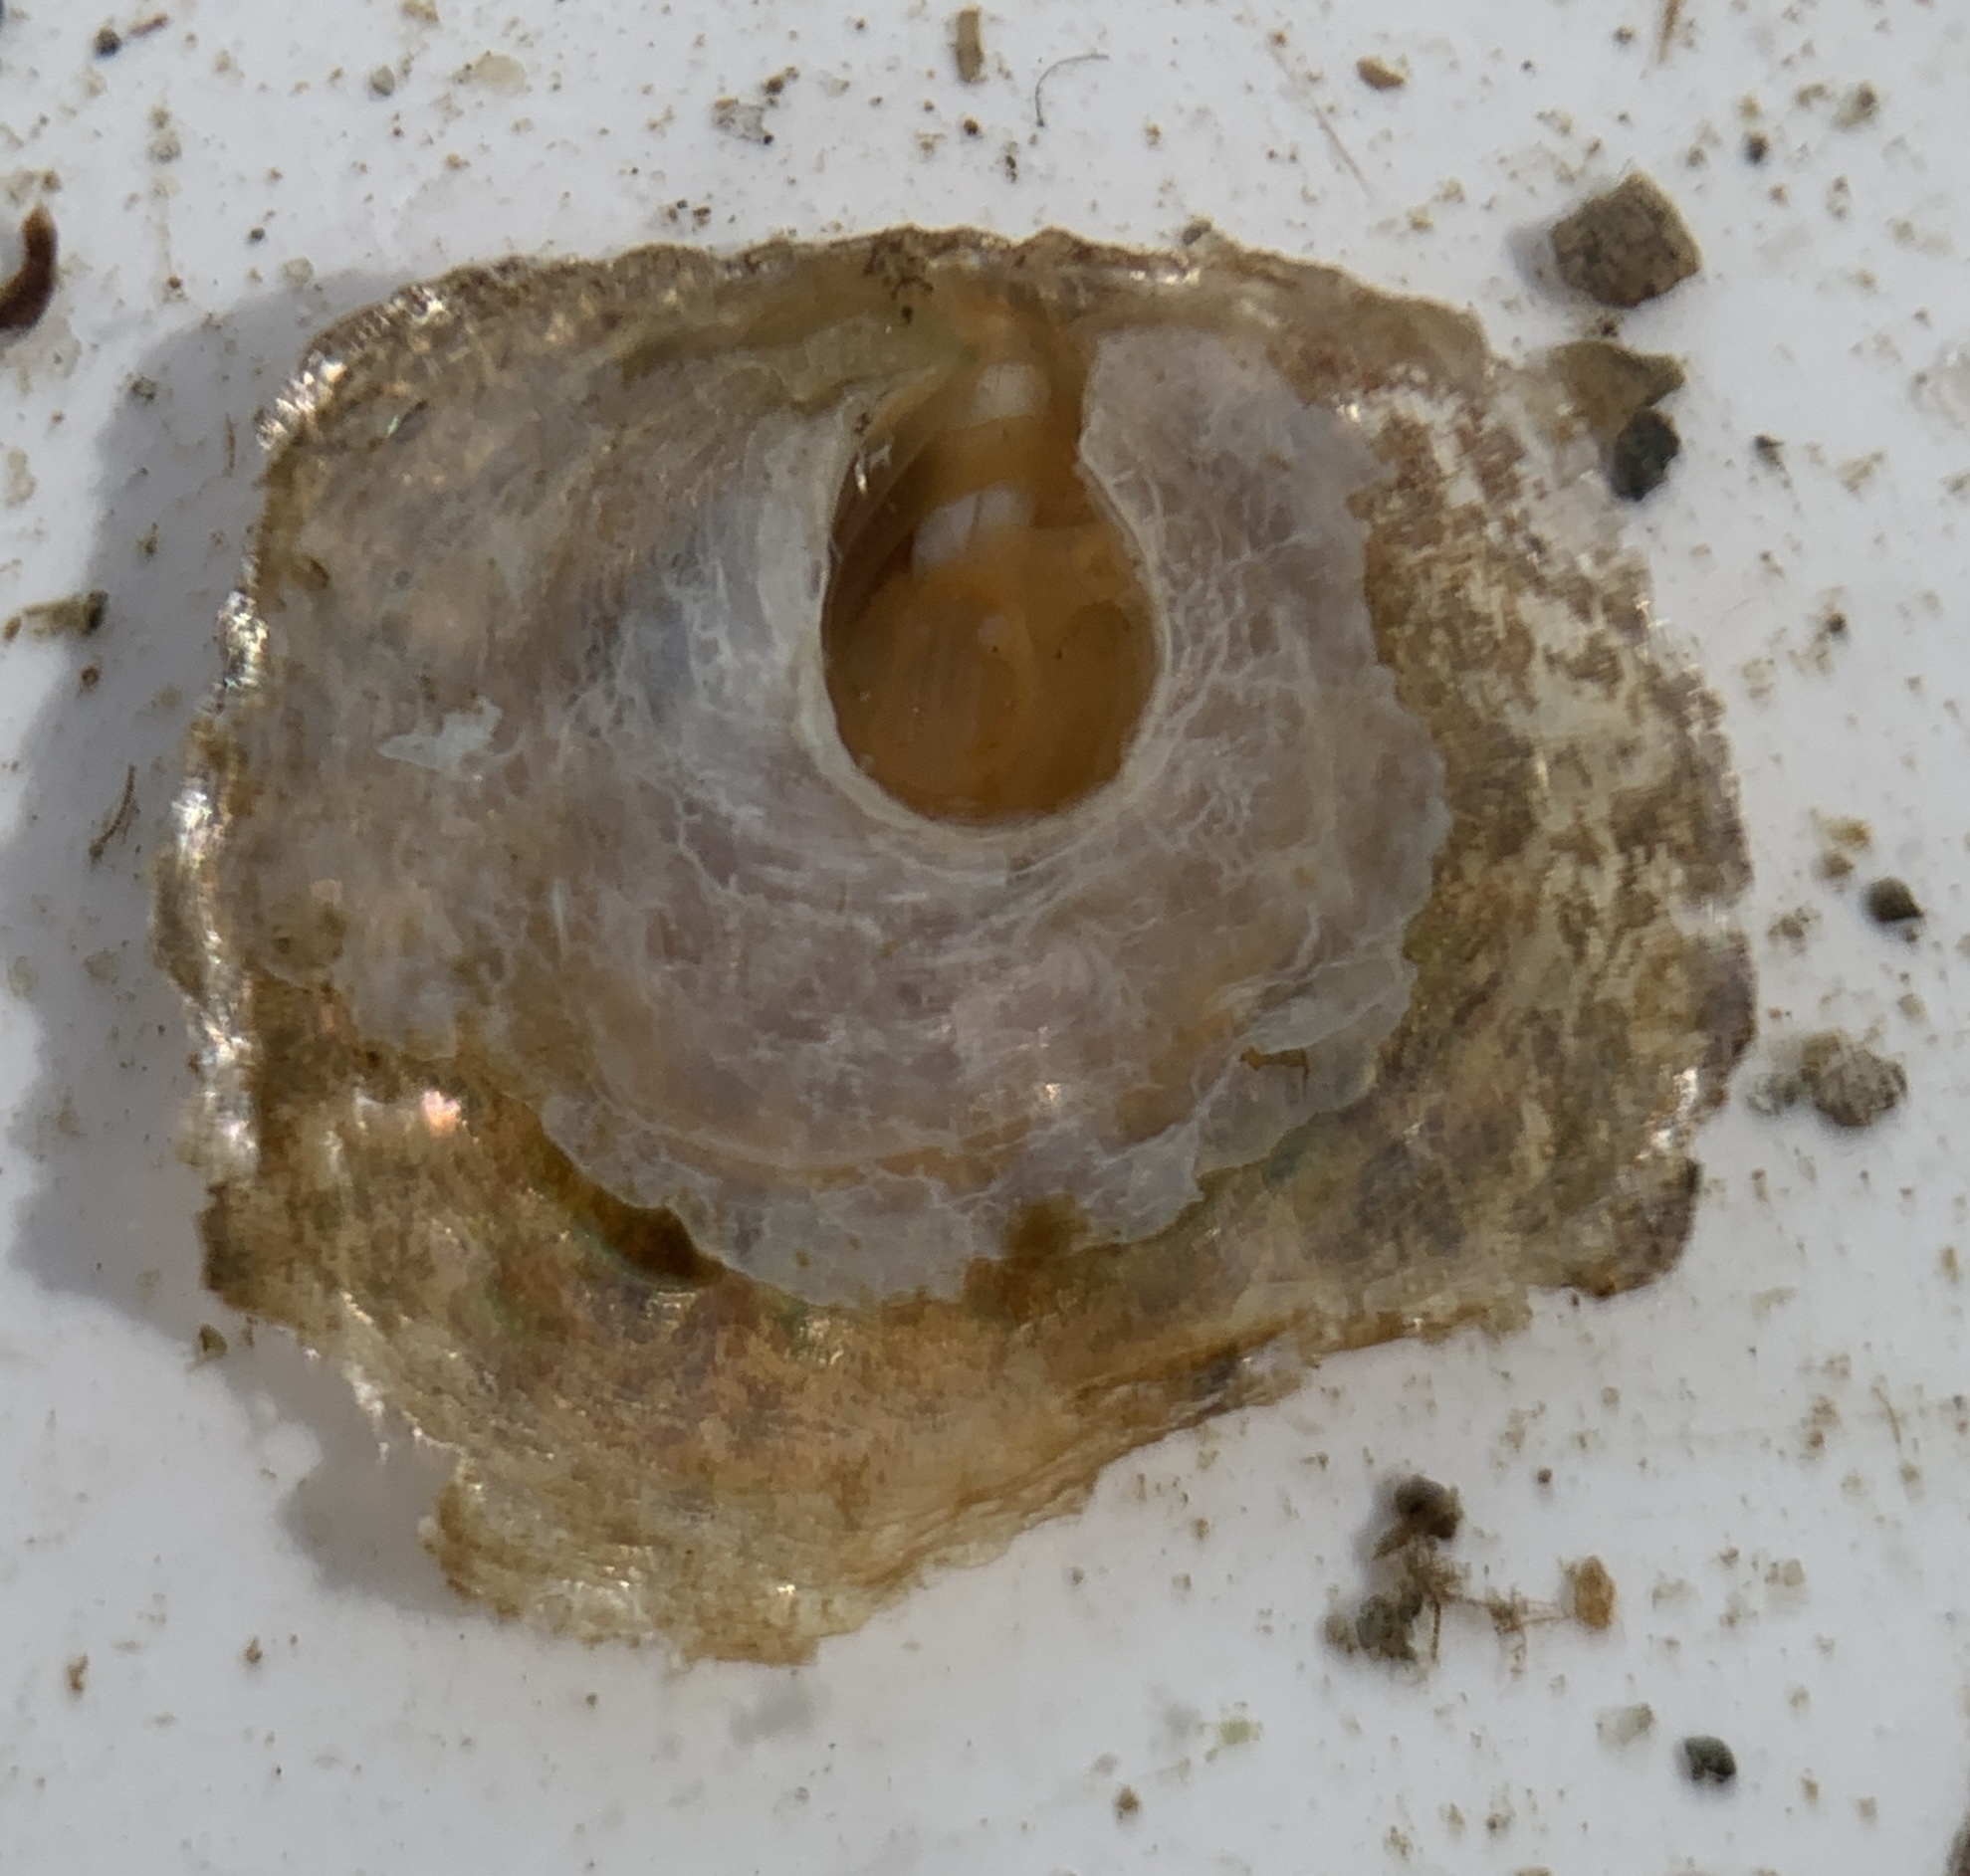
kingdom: Animalia
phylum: Mollusca
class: Bivalvia
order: Pectinida
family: Anomiidae
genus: Anomia
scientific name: Anomia simplex
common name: Common jingle shell
